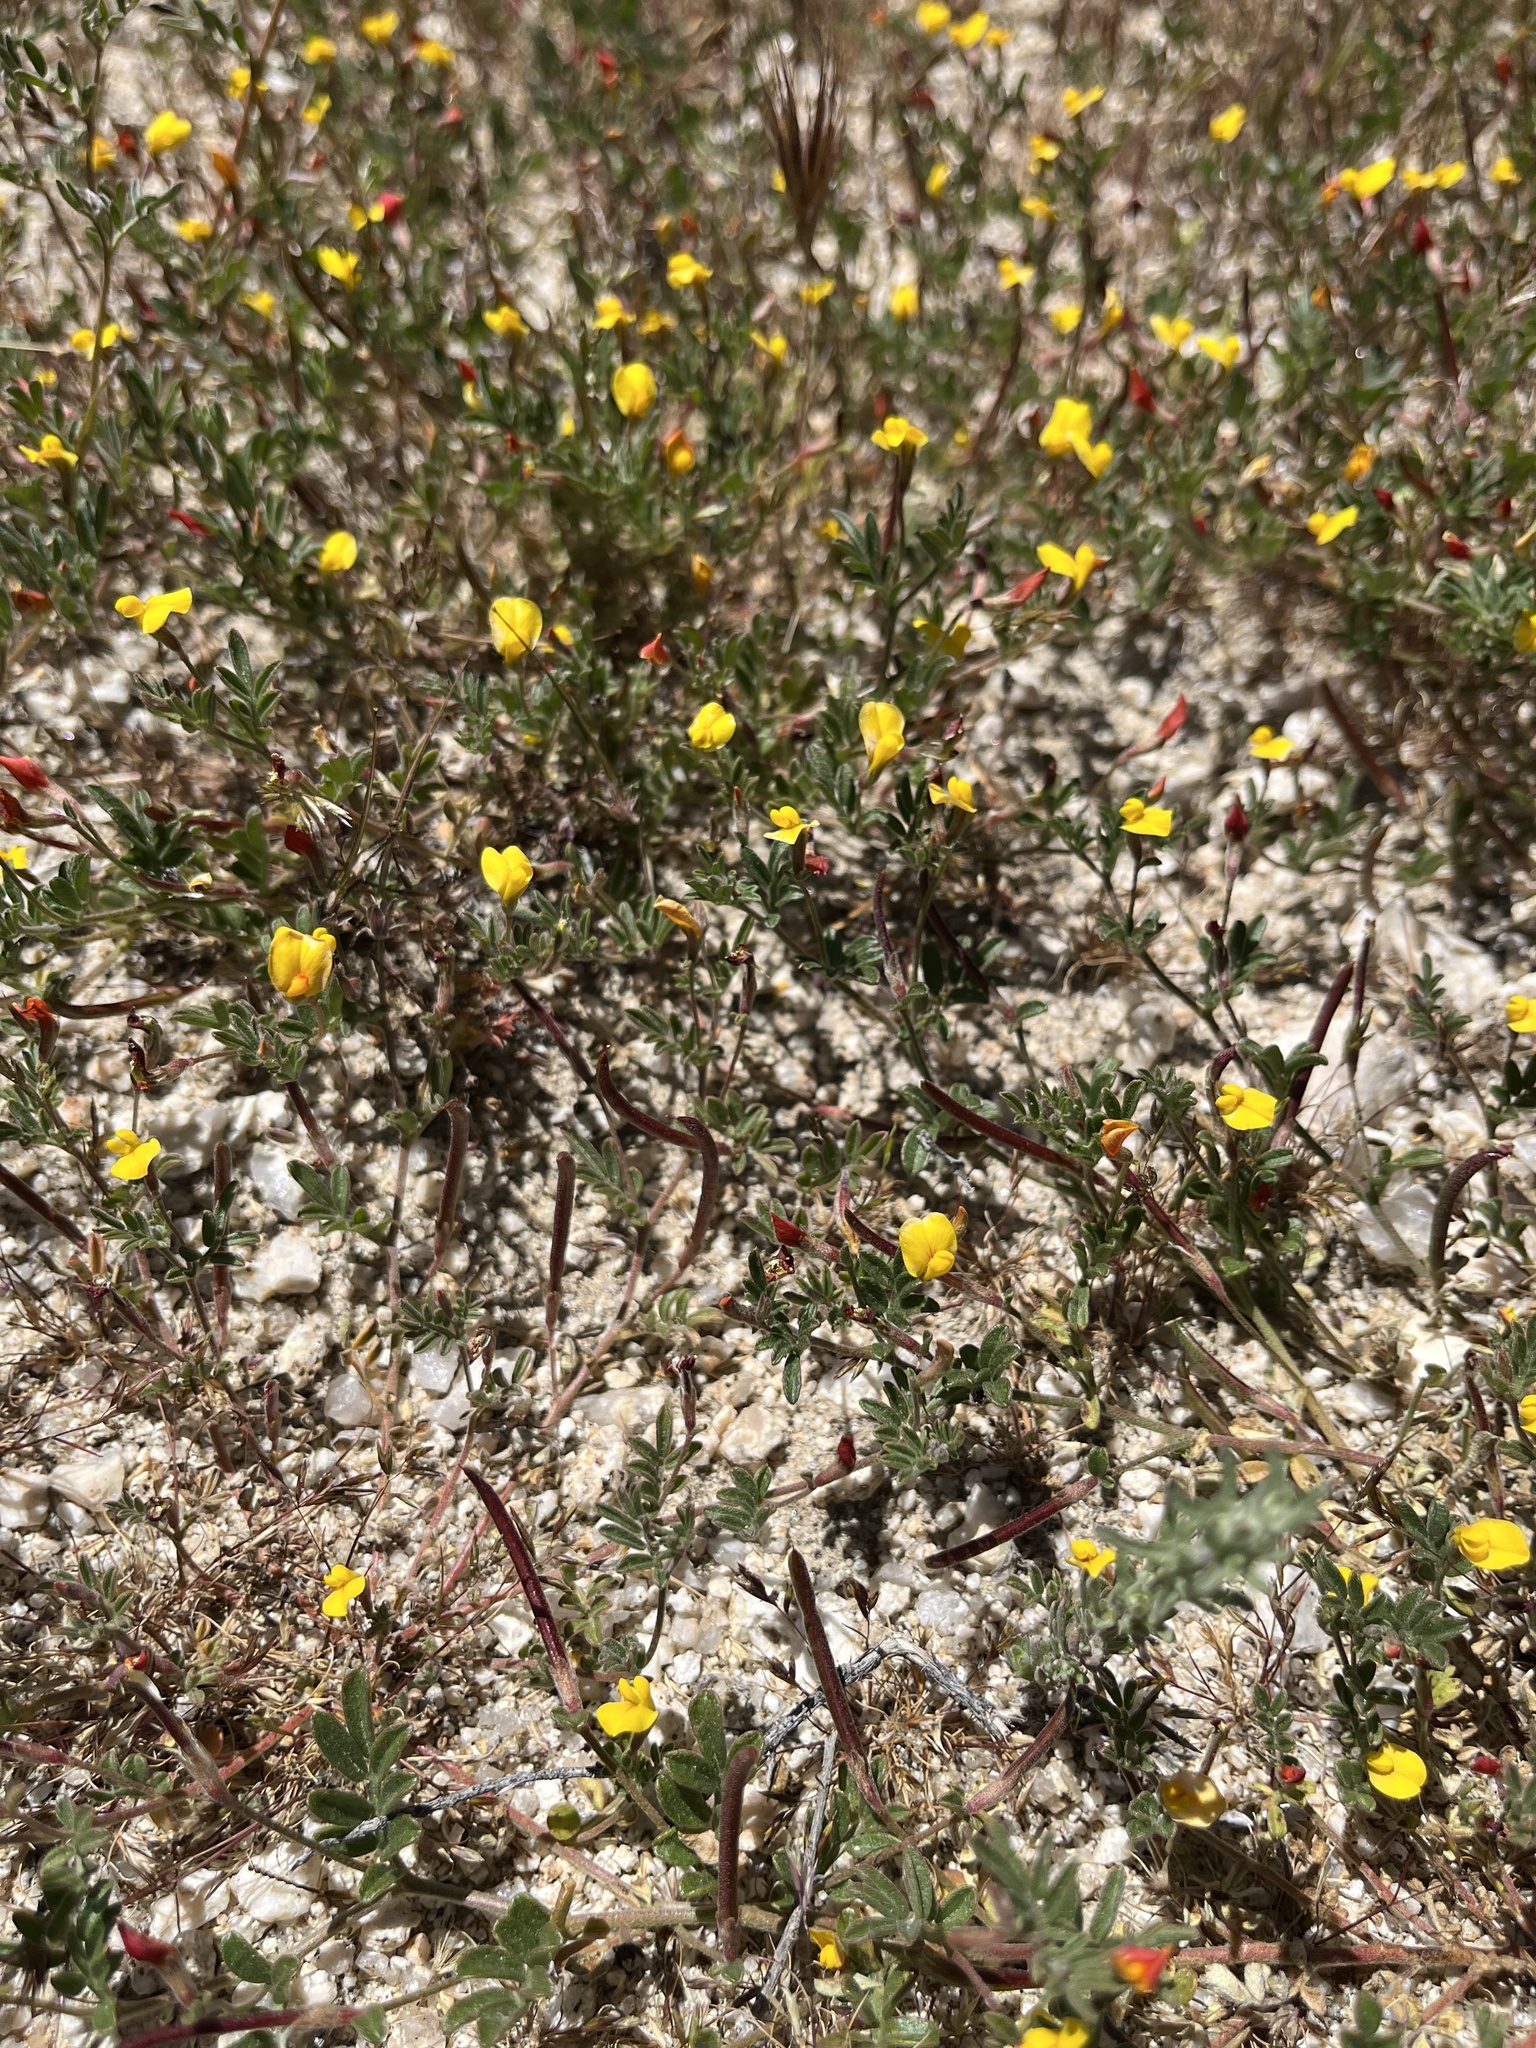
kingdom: Plantae
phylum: Tracheophyta
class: Magnoliopsida
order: Fabales
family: Fabaceae
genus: Acmispon
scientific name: Acmispon strigosus
